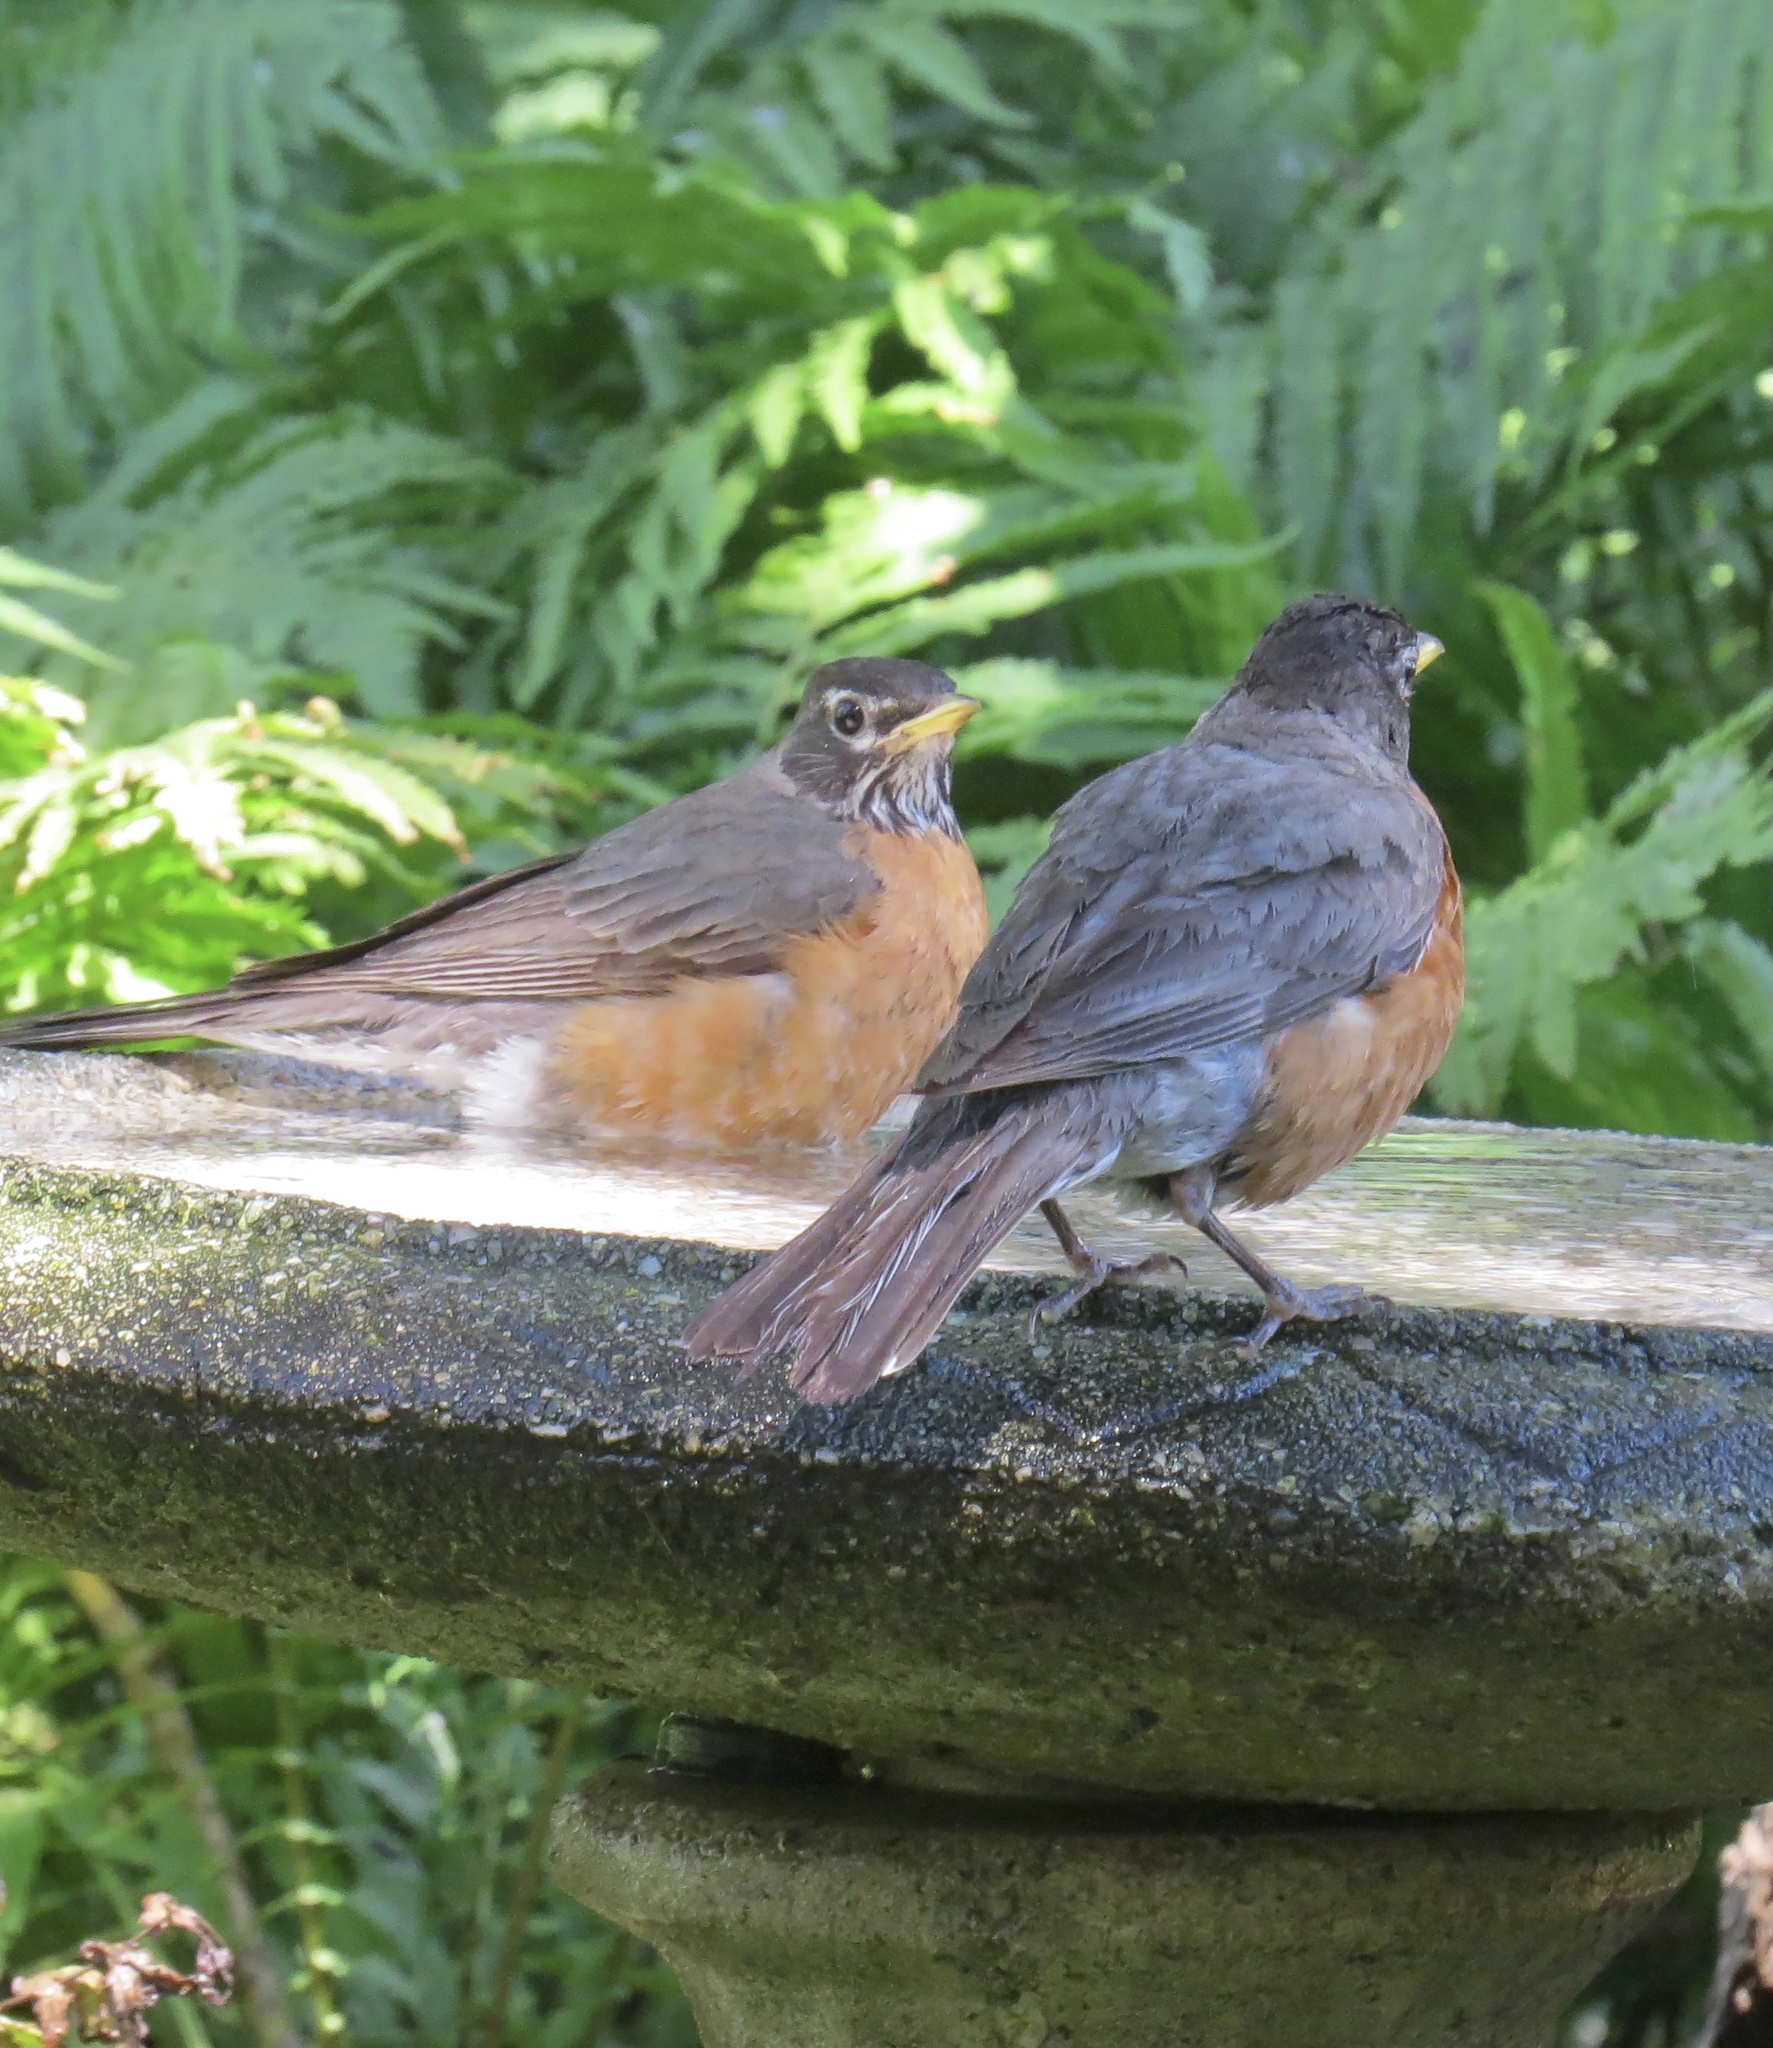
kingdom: Animalia
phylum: Chordata
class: Aves
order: Passeriformes
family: Turdidae
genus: Turdus
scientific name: Turdus migratorius
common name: American robin
